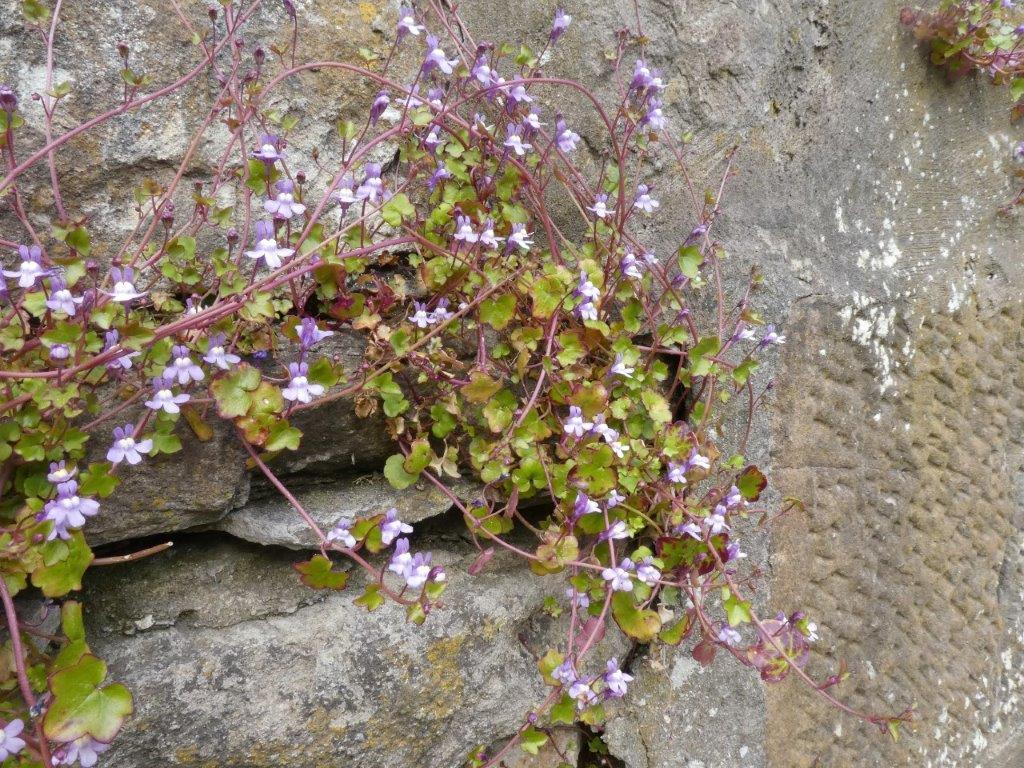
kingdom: Plantae
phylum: Tracheophyta
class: Magnoliopsida
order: Lamiales
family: Plantaginaceae
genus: Cymbalaria
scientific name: Cymbalaria muralis
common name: Ivy-leaved toadflax
